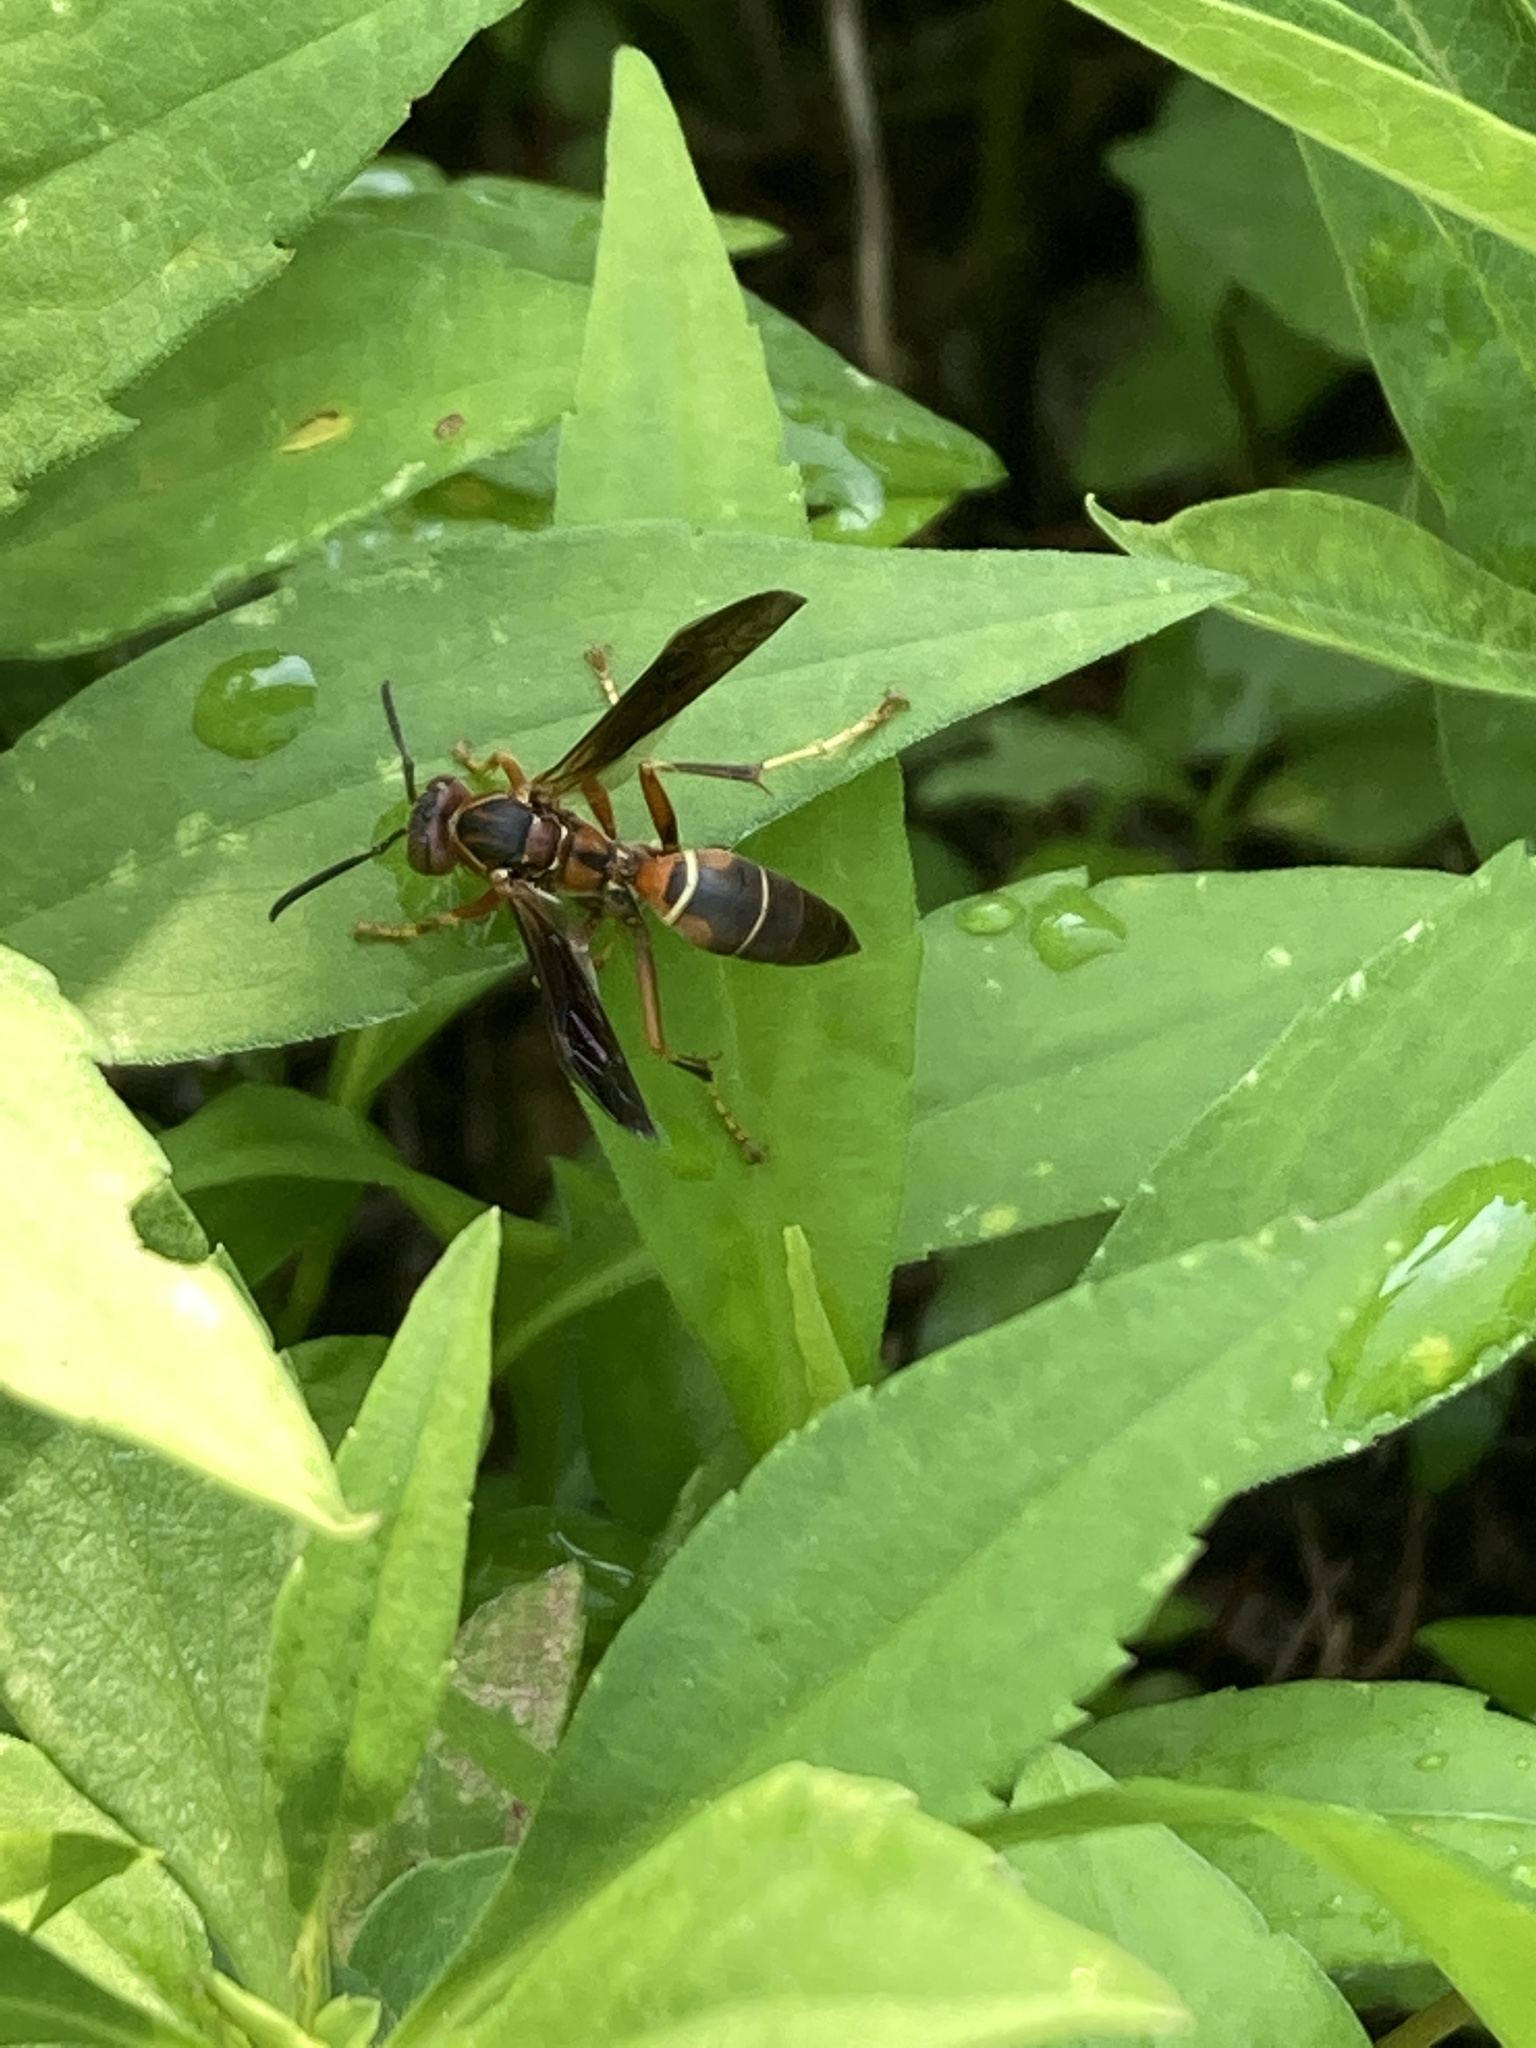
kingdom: Animalia
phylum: Arthropoda
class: Insecta
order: Hymenoptera
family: Eumenidae
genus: Polistes
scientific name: Polistes fuscatus
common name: Dark paper wasp
